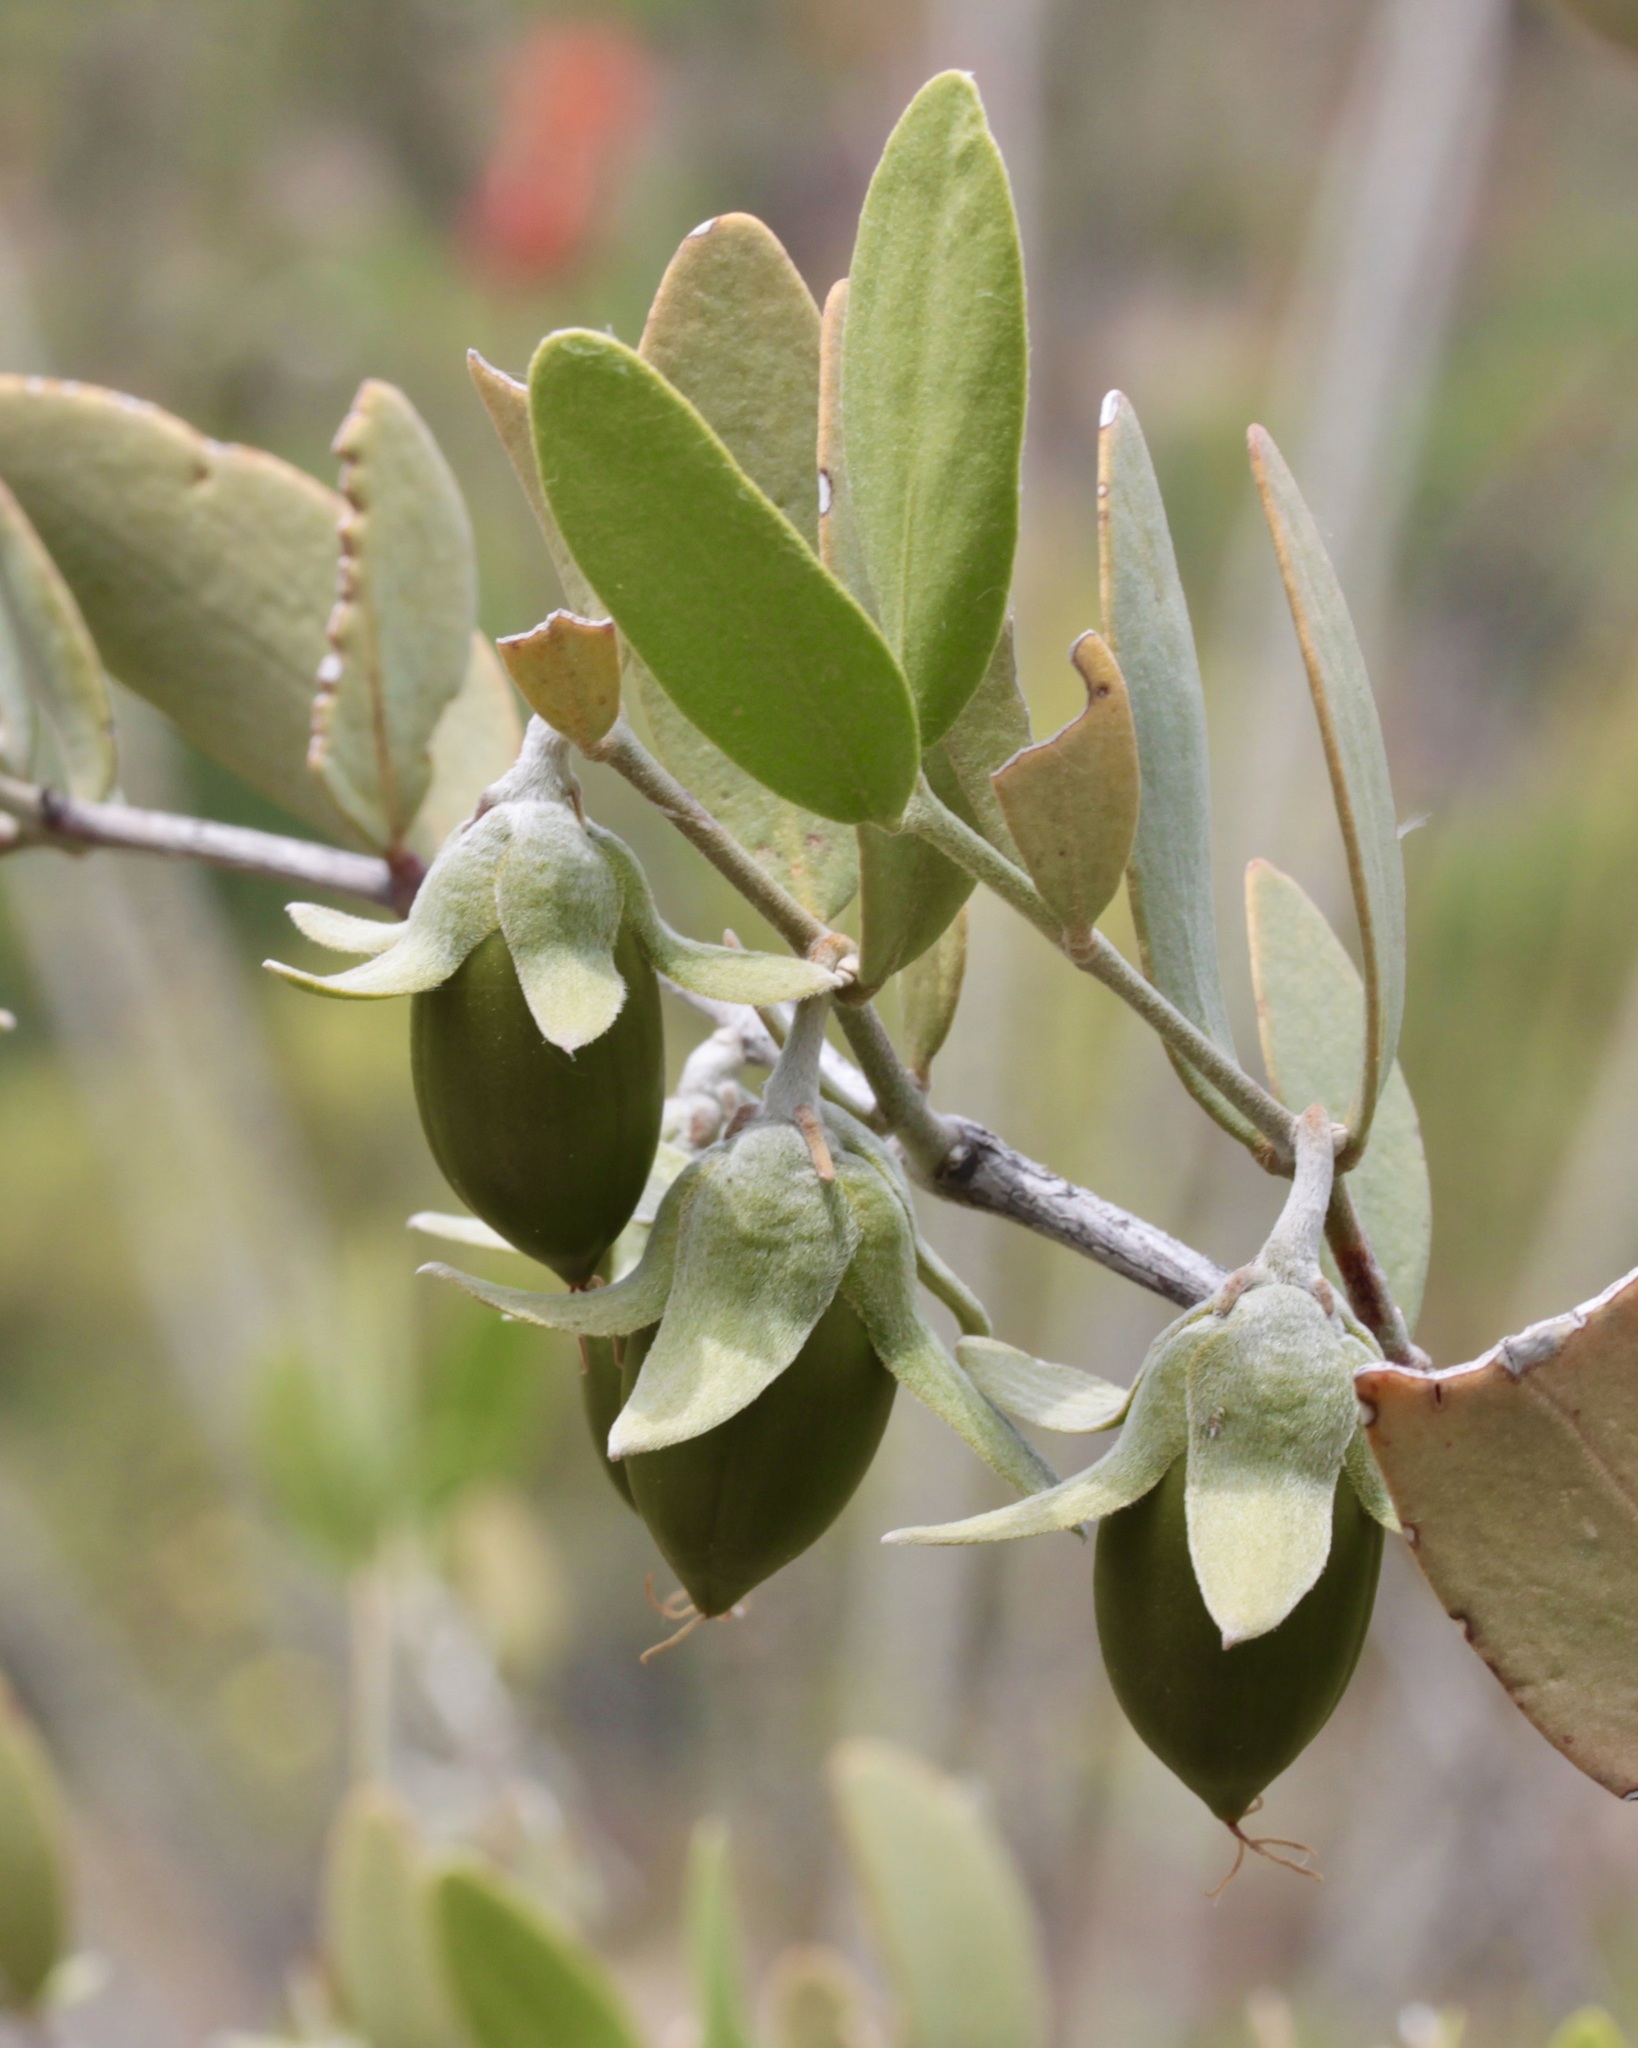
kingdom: Plantae
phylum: Tracheophyta
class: Magnoliopsida
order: Caryophyllales
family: Simmondsiaceae
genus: Simmondsia
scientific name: Simmondsia chinensis
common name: Jojoba
